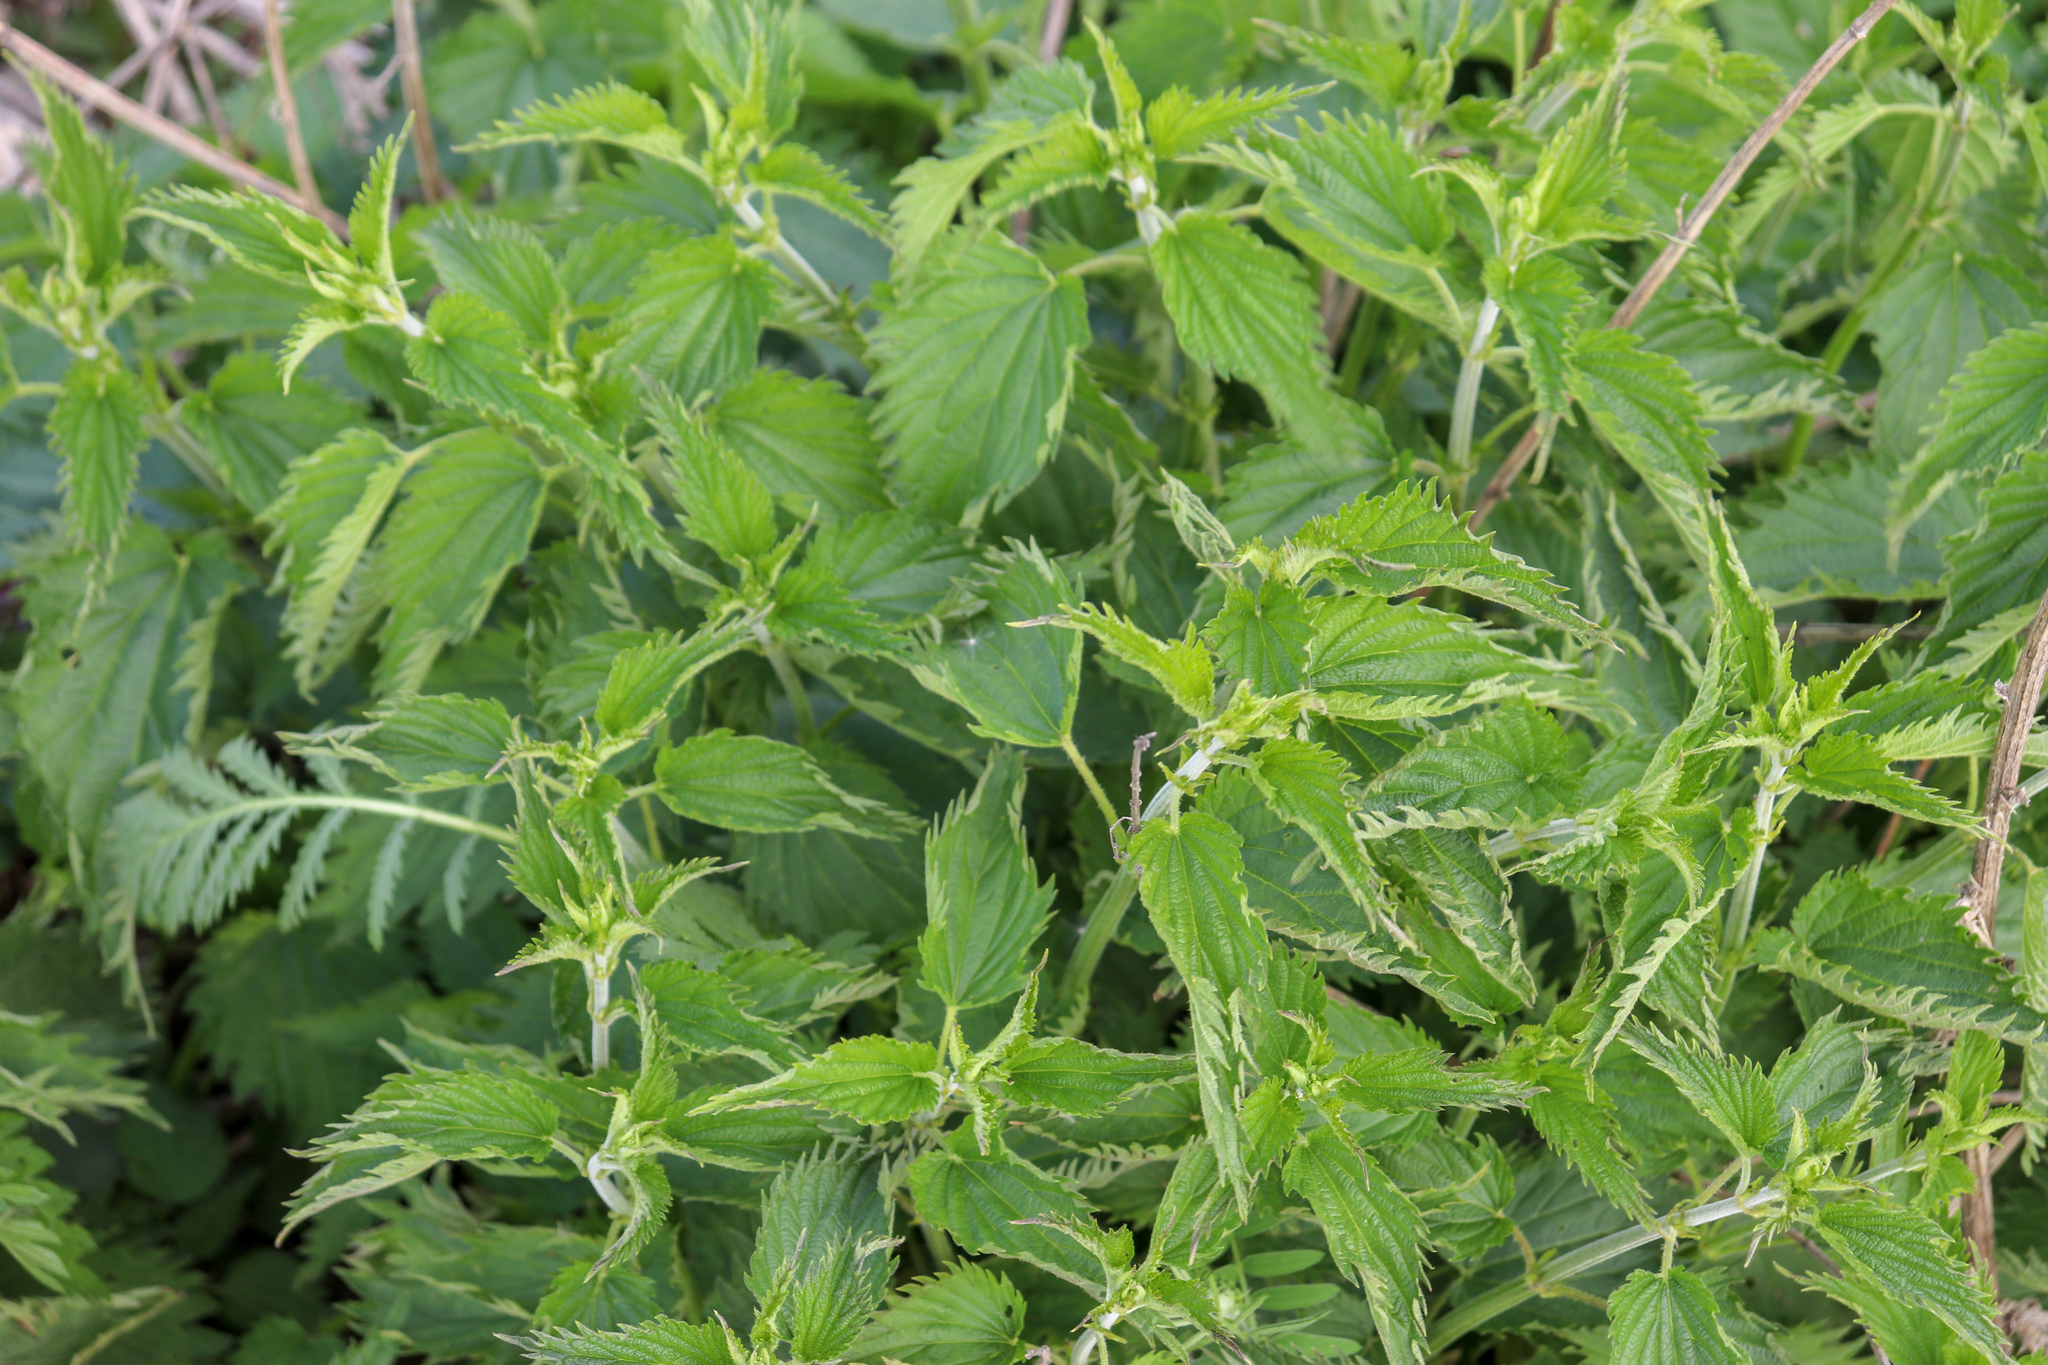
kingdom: Plantae
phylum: Tracheophyta
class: Magnoliopsida
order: Rosales
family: Urticaceae
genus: Urtica
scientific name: Urtica dioica
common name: Common nettle
